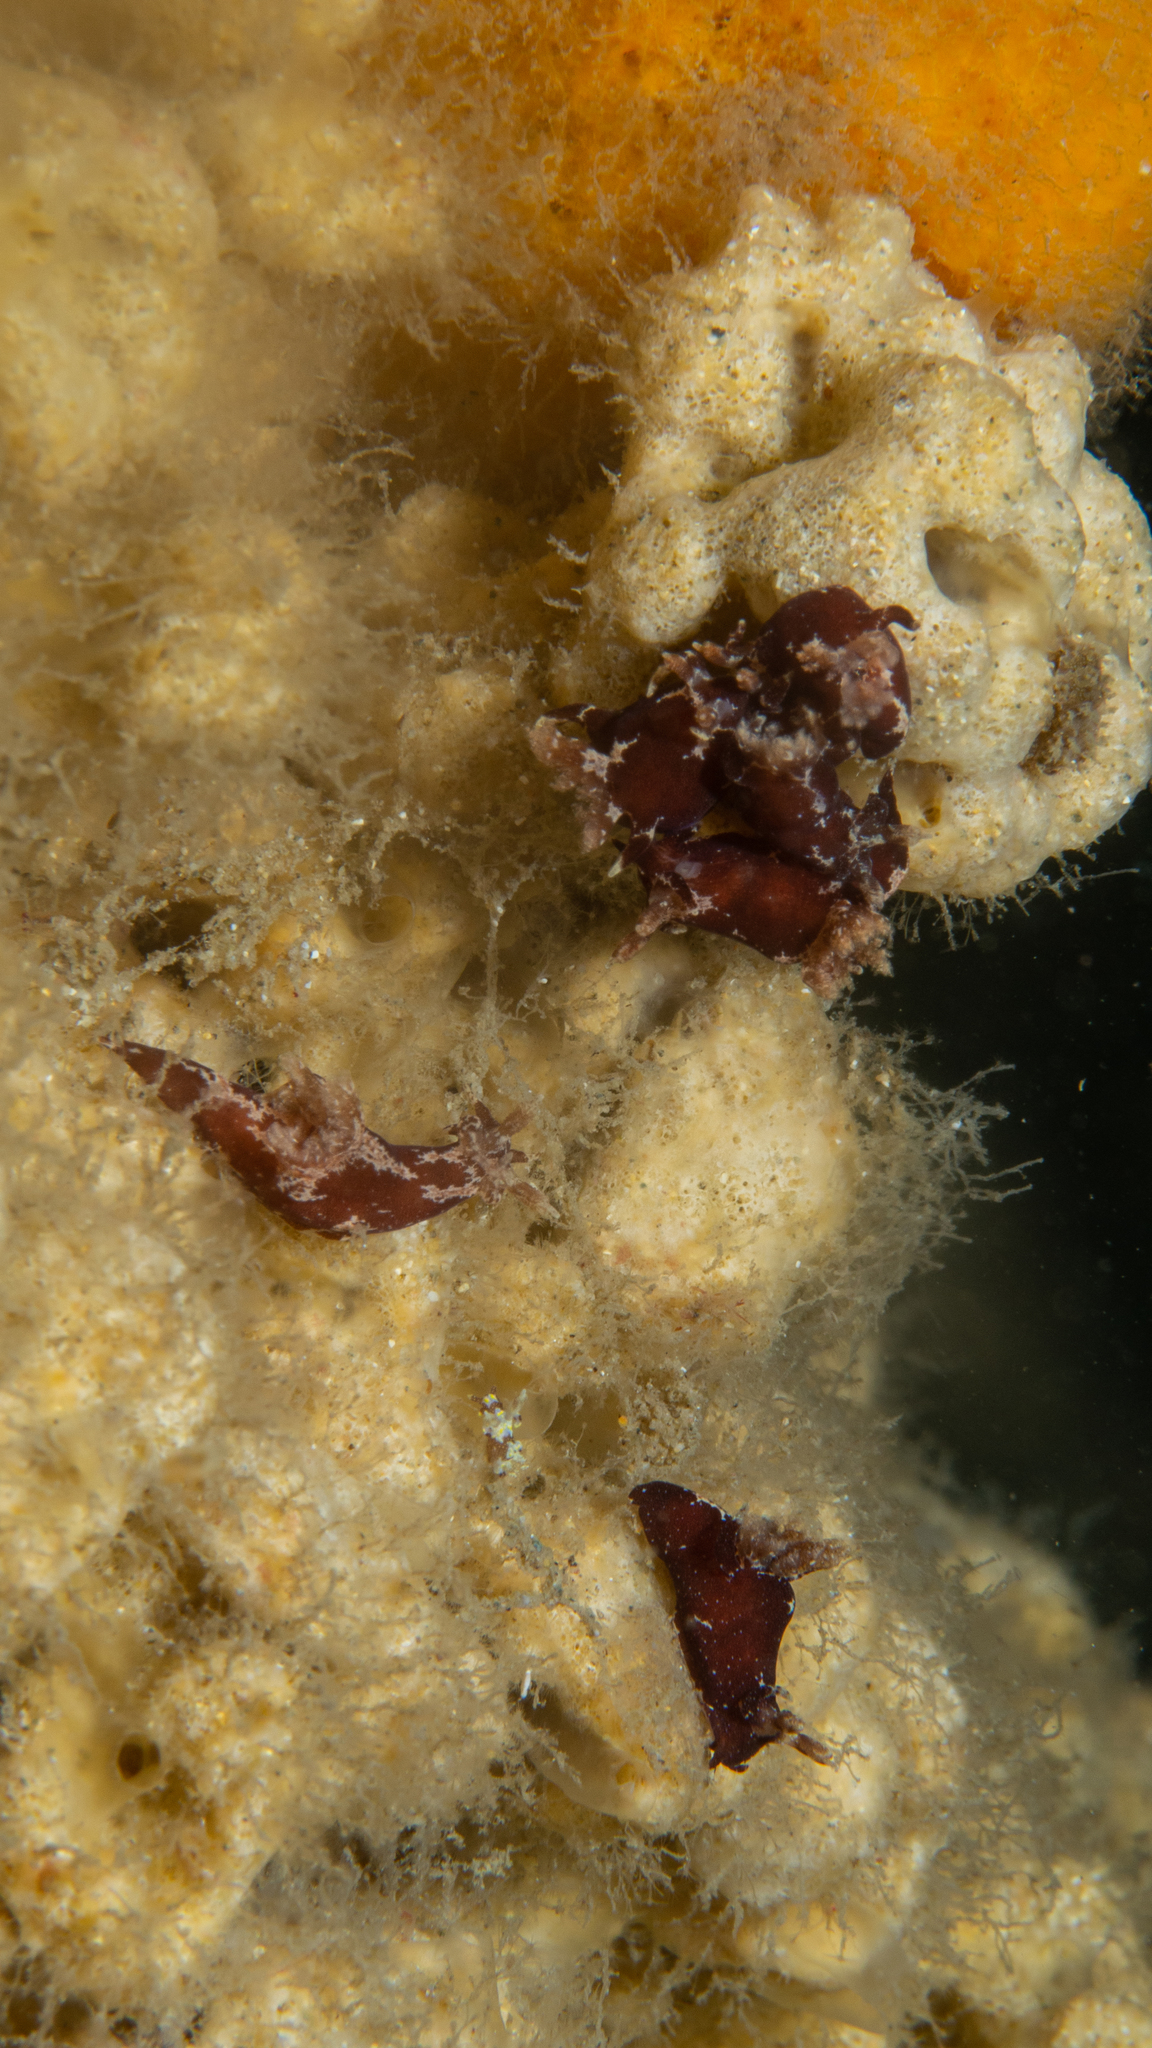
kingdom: Animalia
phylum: Mollusca
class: Gastropoda
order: Nudibranchia
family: Goniodorididae
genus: Trapania
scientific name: Trapania benni
